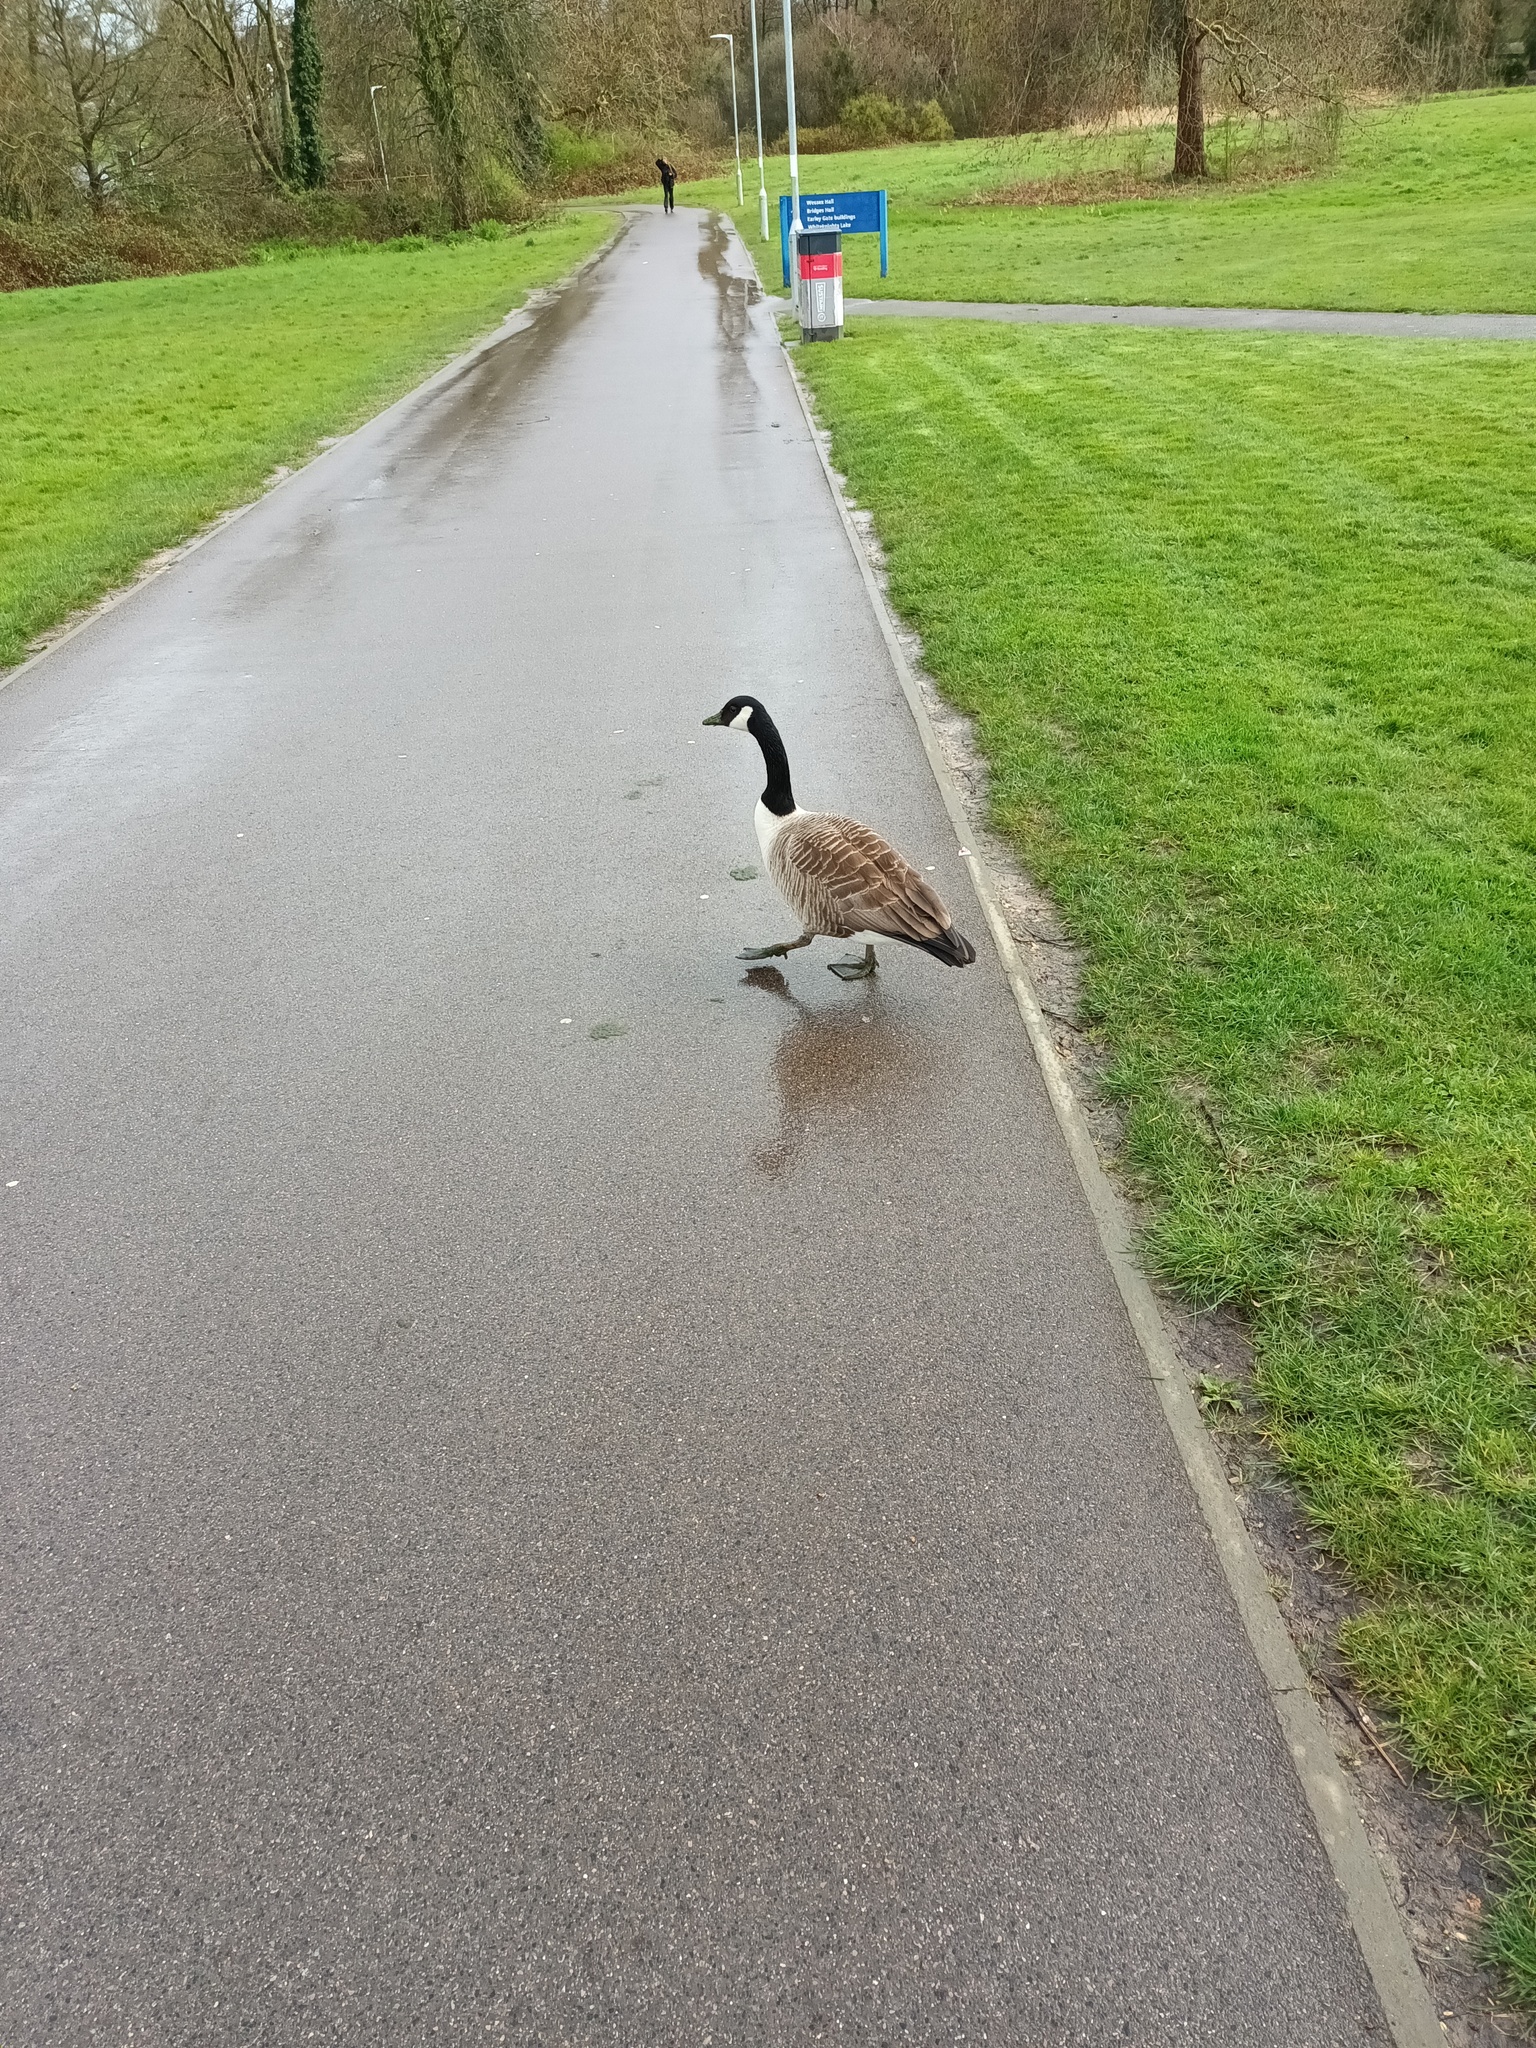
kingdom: Animalia
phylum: Chordata
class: Aves
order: Anseriformes
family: Anatidae
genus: Branta
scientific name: Branta canadensis
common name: Canada goose
